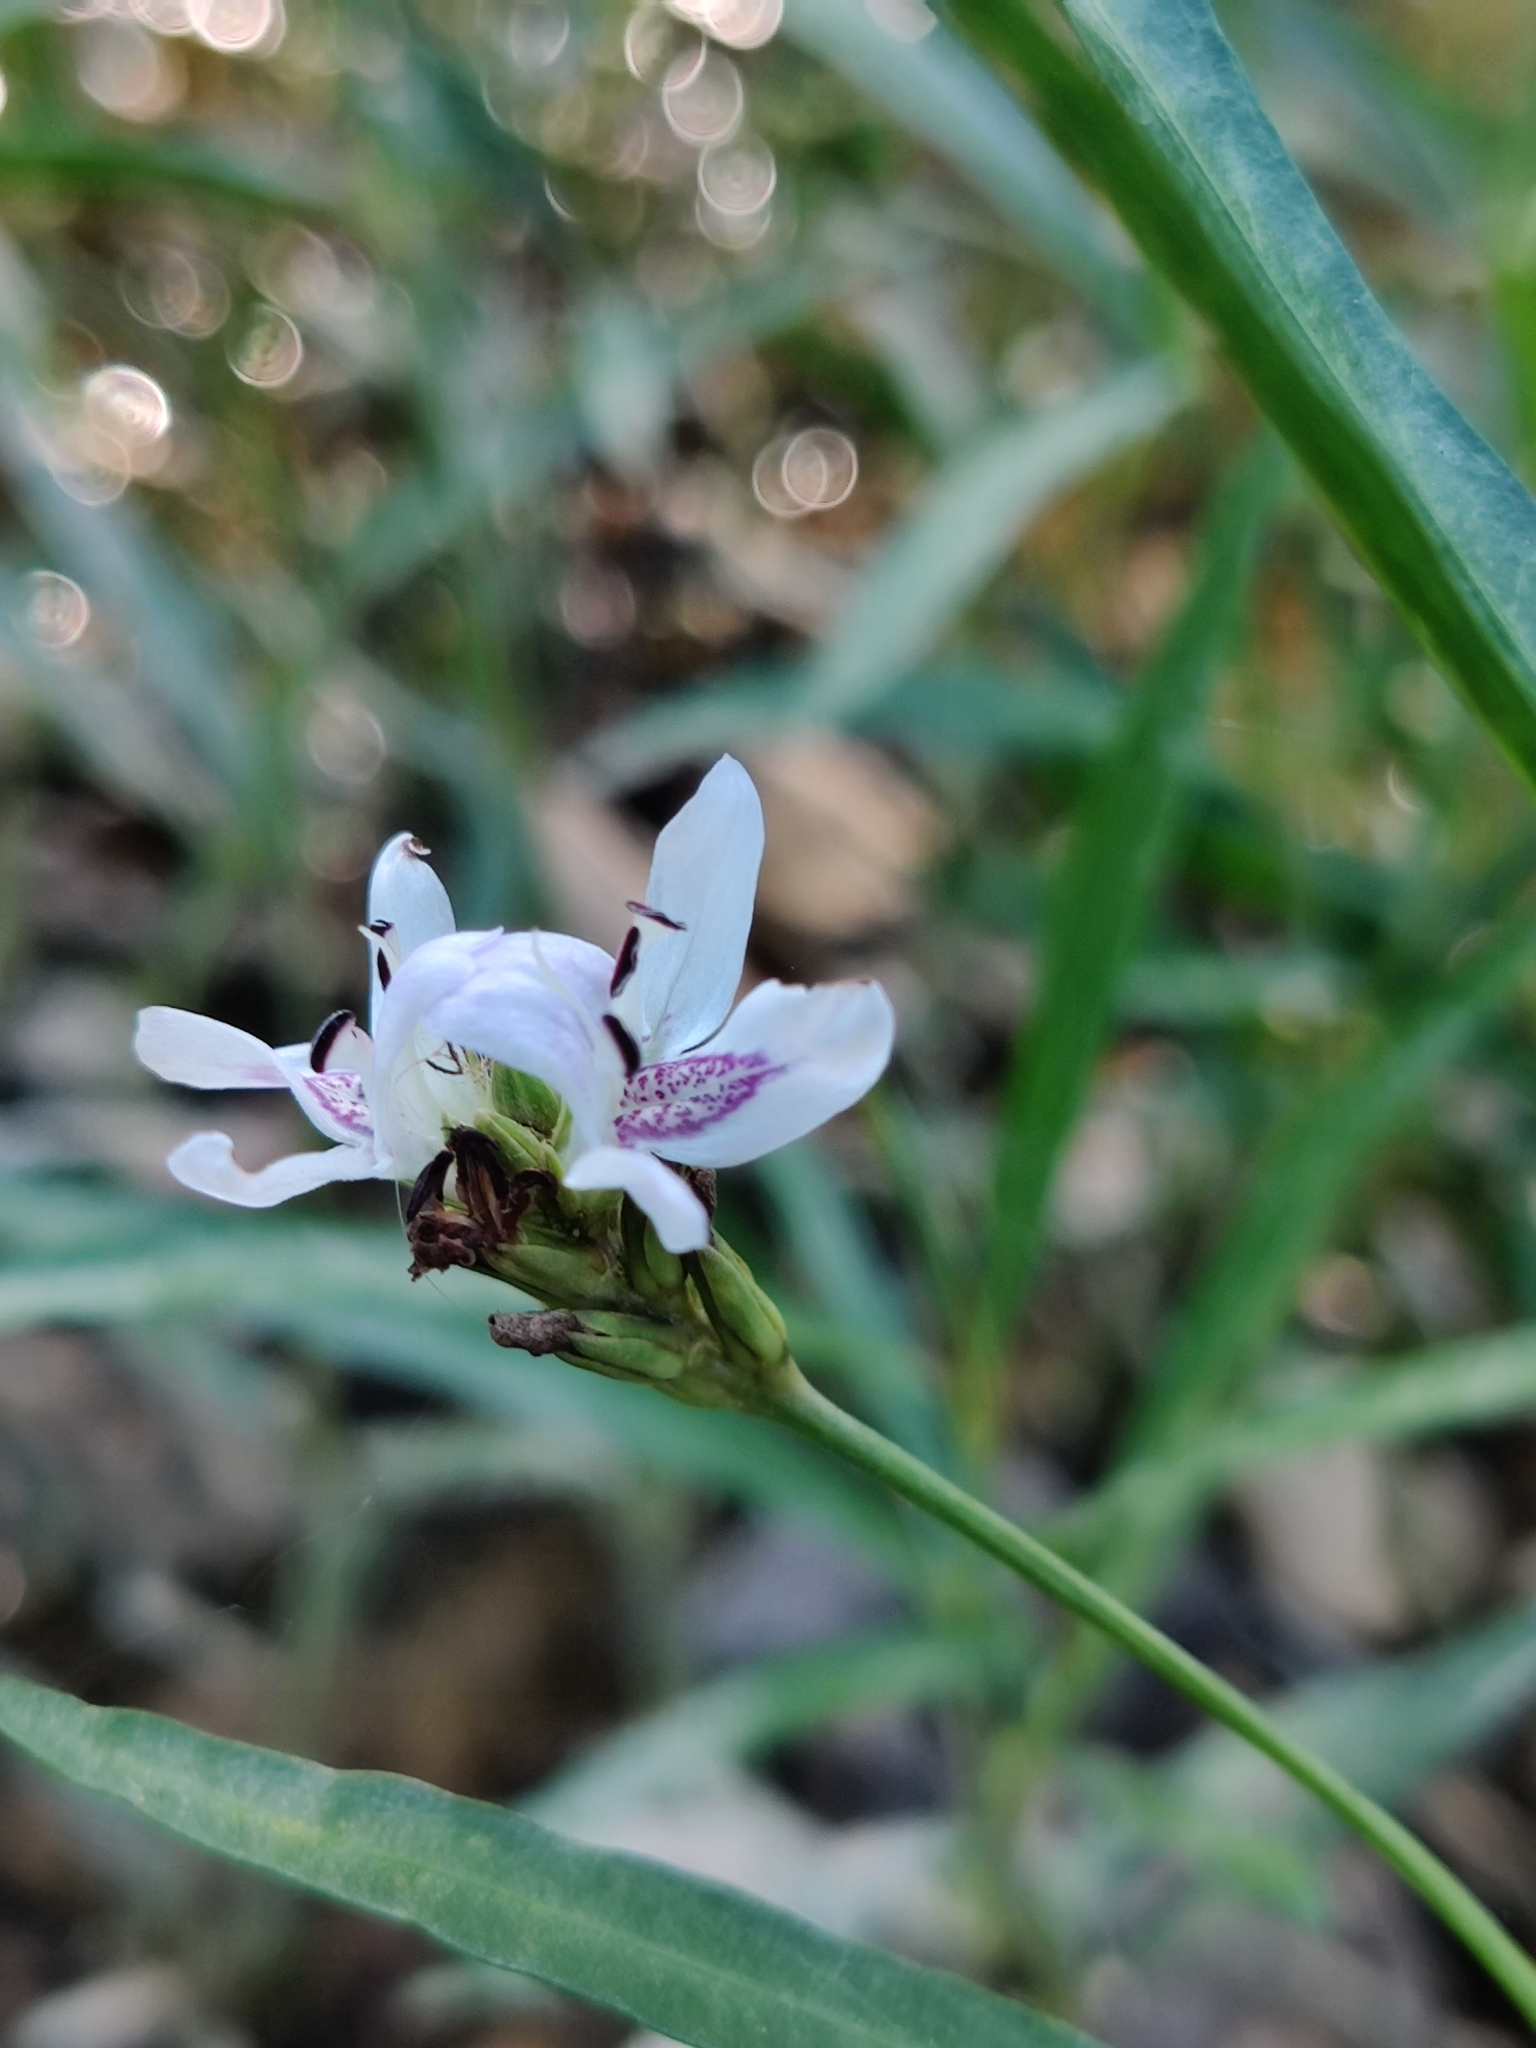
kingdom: Plantae
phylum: Tracheophyta
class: Magnoliopsida
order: Lamiales
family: Acanthaceae
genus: Dianthera
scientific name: Dianthera americana
